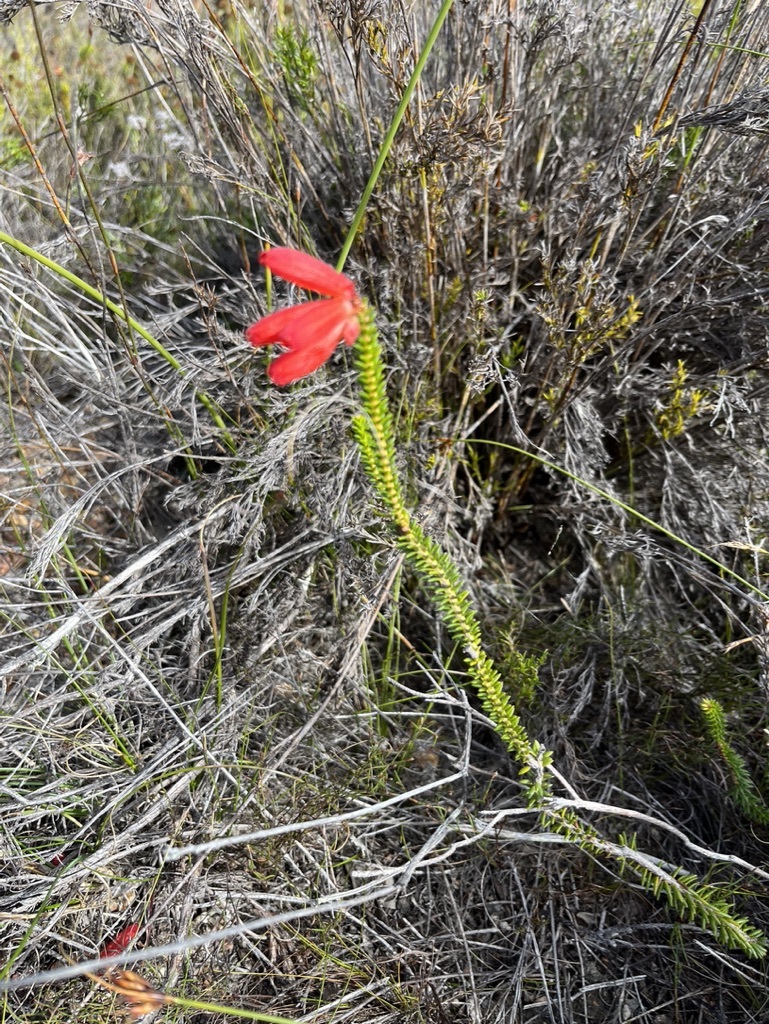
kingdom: Plantae
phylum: Tracheophyta
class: Magnoliopsida
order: Ericales
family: Ericaceae
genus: Erica
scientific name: Erica cerinthoides
